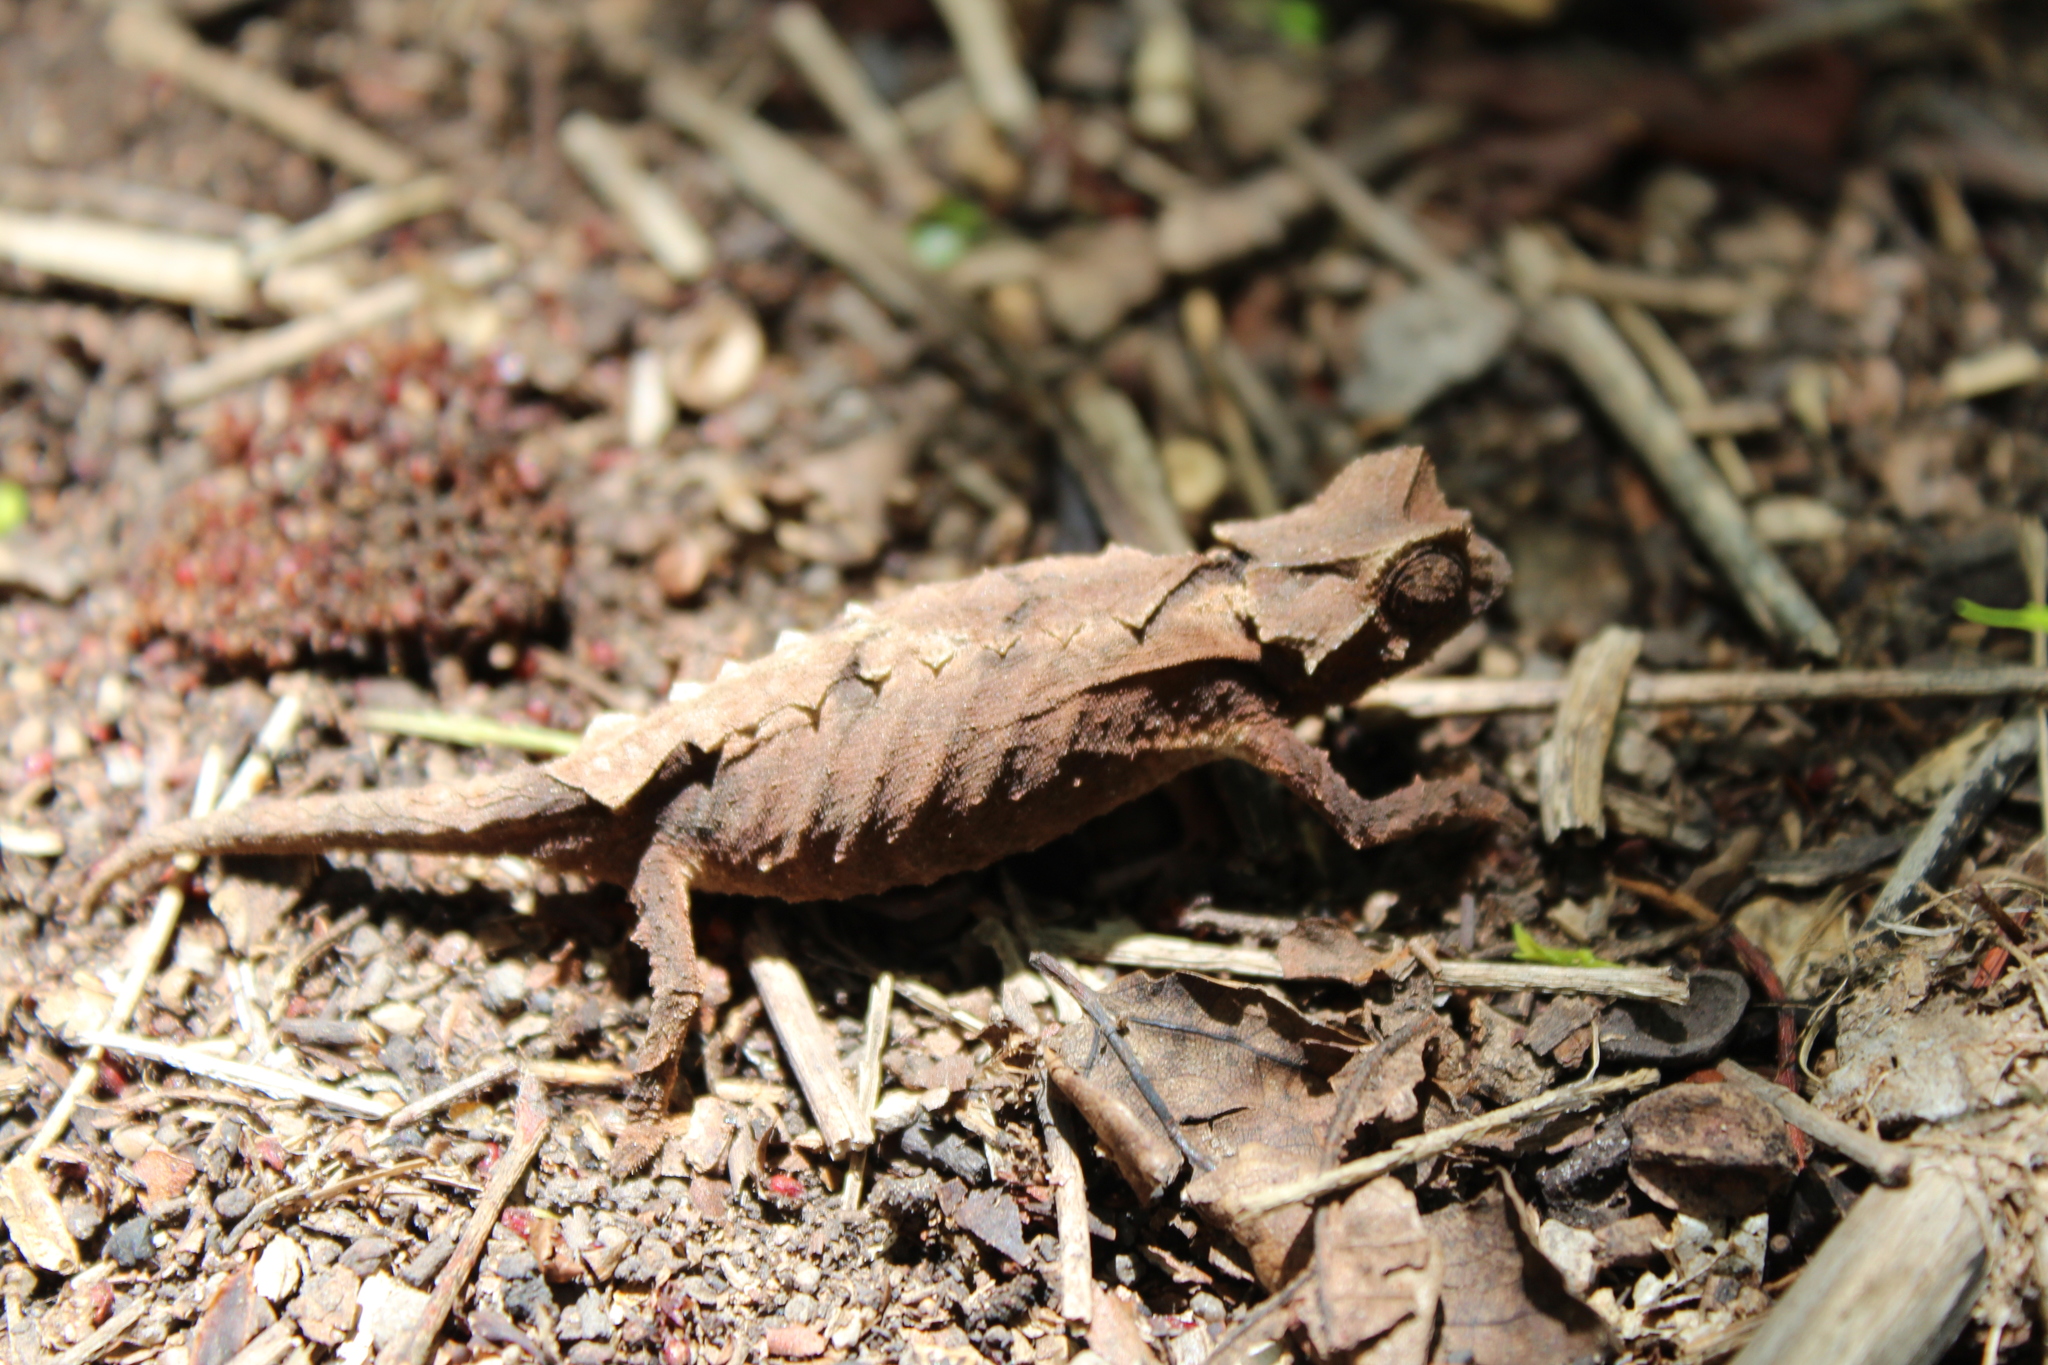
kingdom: Animalia
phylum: Chordata
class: Squamata
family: Chamaeleonidae
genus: Brookesia
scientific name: Brookesia brunoi
